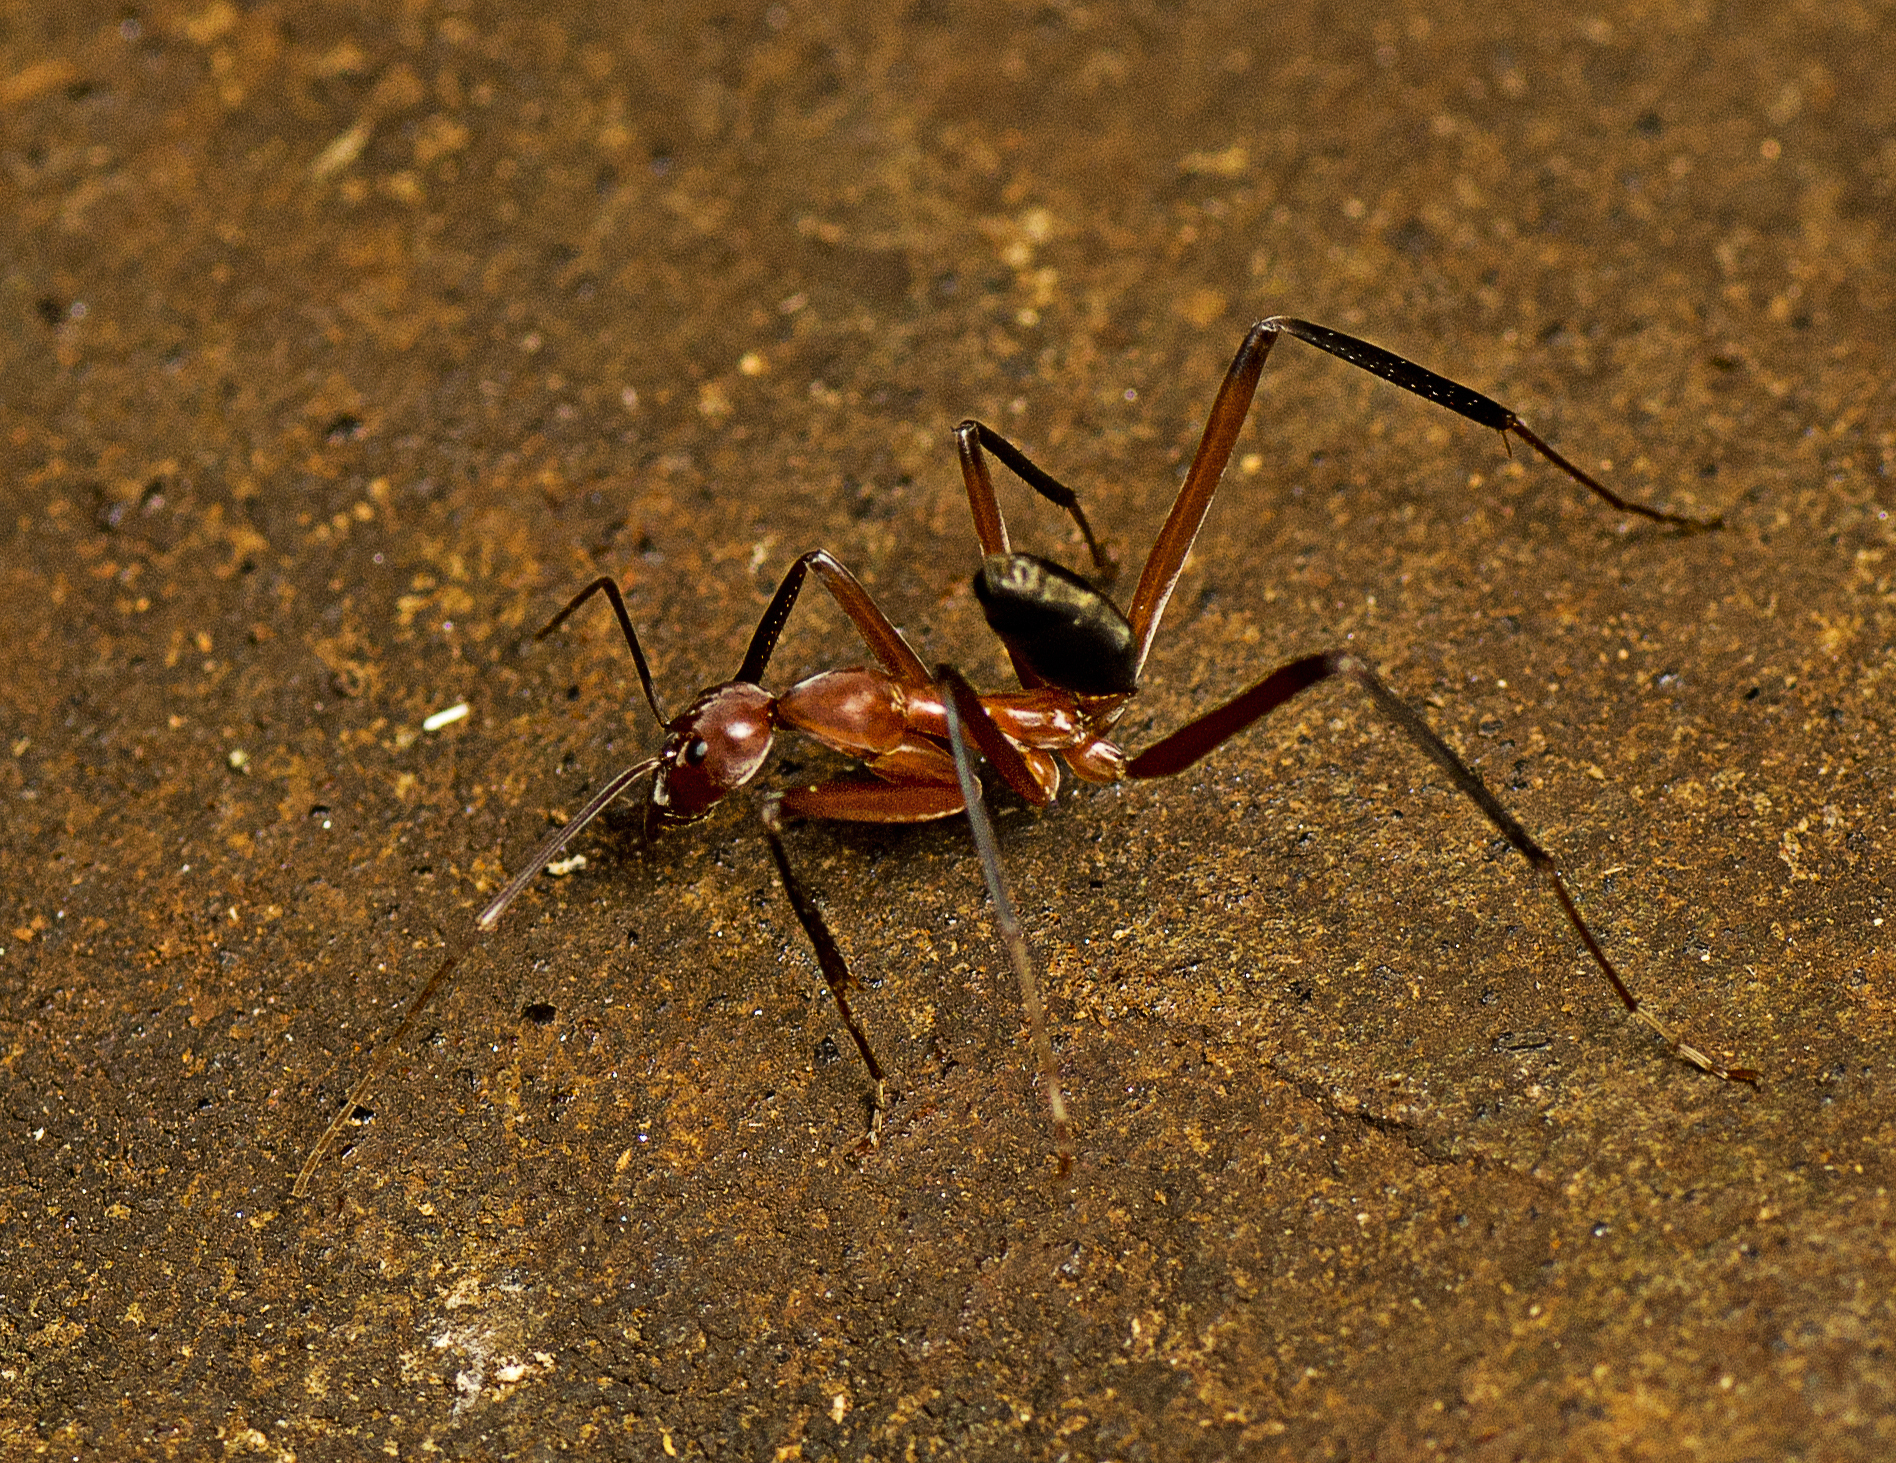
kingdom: Animalia
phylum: Arthropoda
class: Insecta
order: Hymenoptera
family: Formicidae
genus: Leptomyrmex
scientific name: Leptomyrmex tibialis
